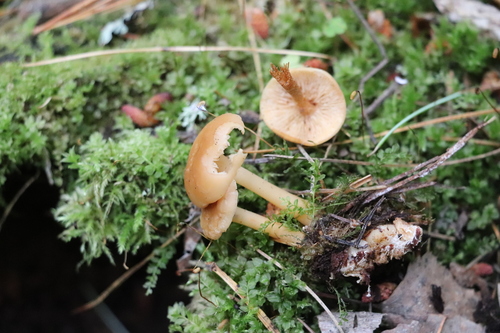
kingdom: Fungi
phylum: Basidiomycota
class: Agaricomycetes
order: Agaricales
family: Omphalotaceae
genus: Gymnopus
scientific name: Gymnopus dryophilus
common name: Penny top
